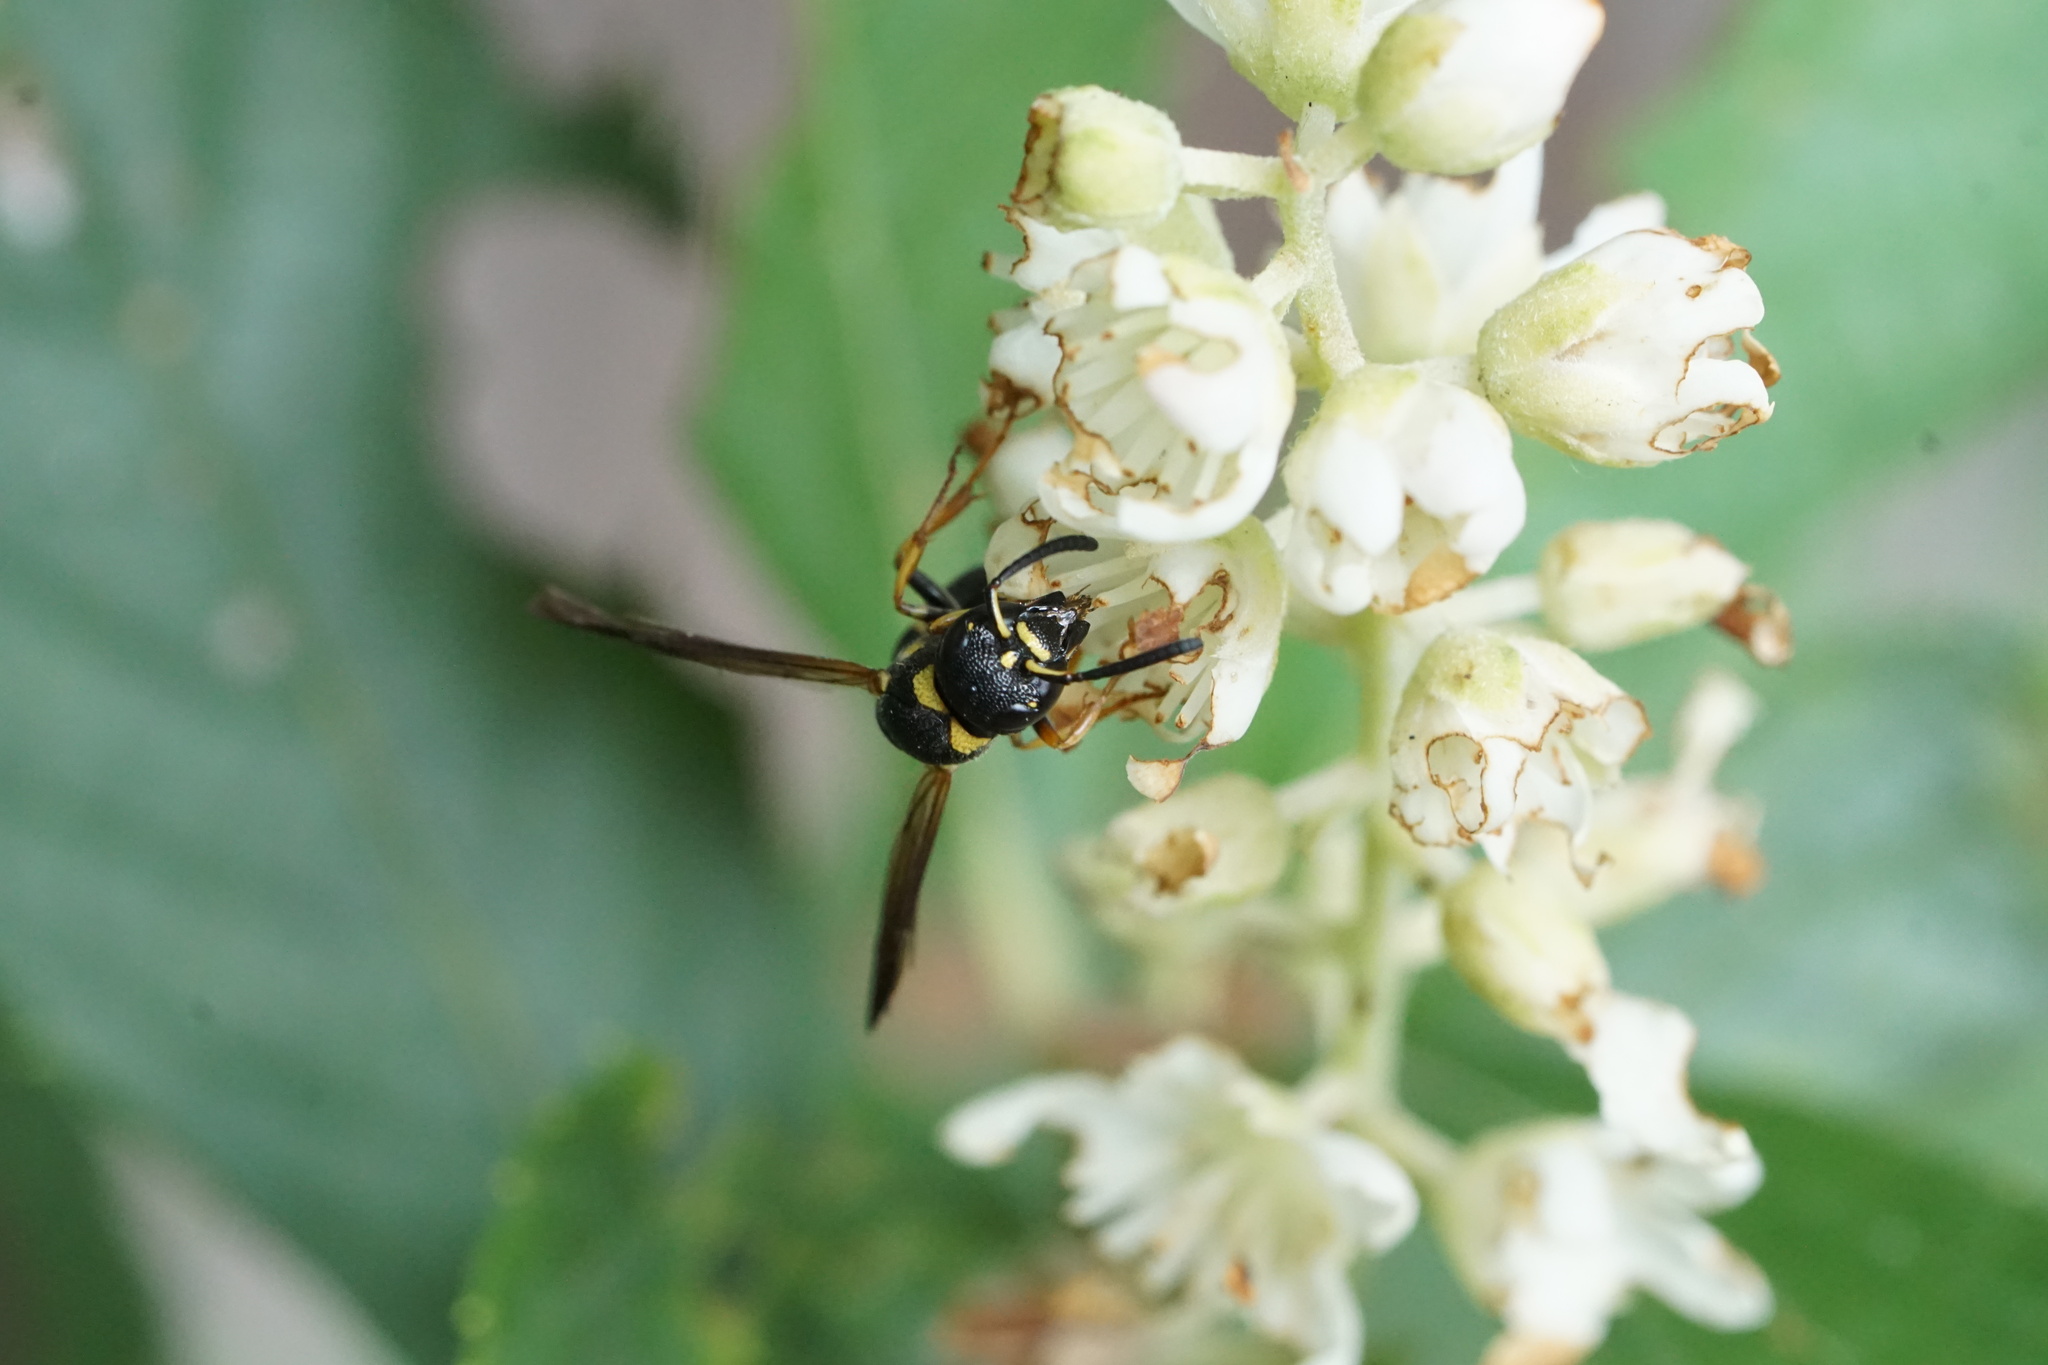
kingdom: Animalia
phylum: Arthropoda
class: Insecta
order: Hymenoptera
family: Eumenidae
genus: Parancistrocerus
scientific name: Parancistrocerus perennis
